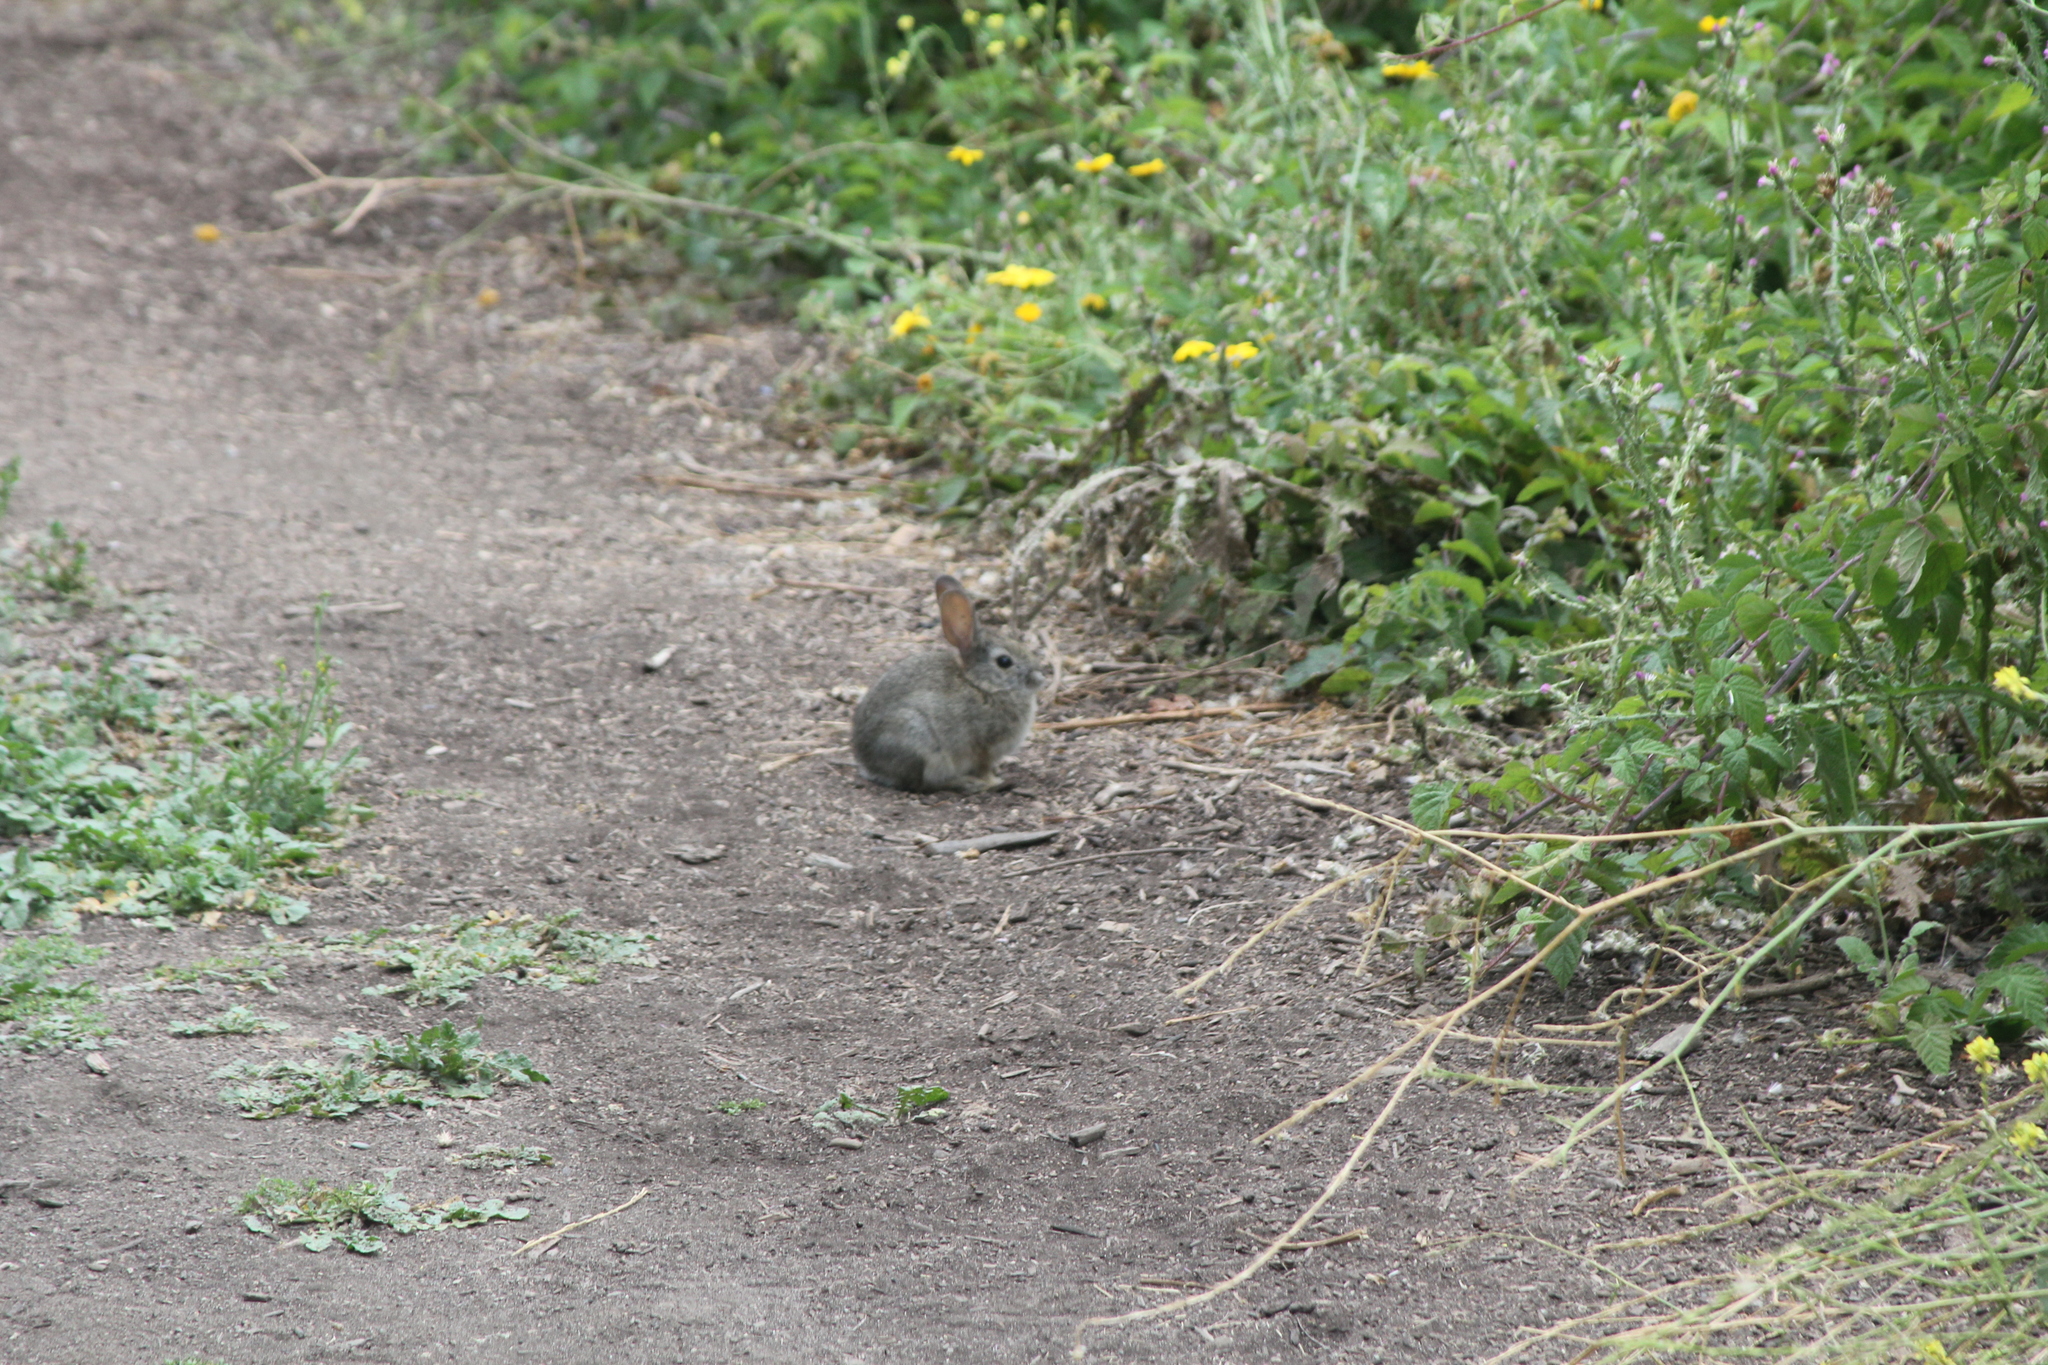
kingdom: Animalia
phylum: Chordata
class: Mammalia
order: Lagomorpha
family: Leporidae
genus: Sylvilagus
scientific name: Sylvilagus audubonii
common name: Desert cottontail
